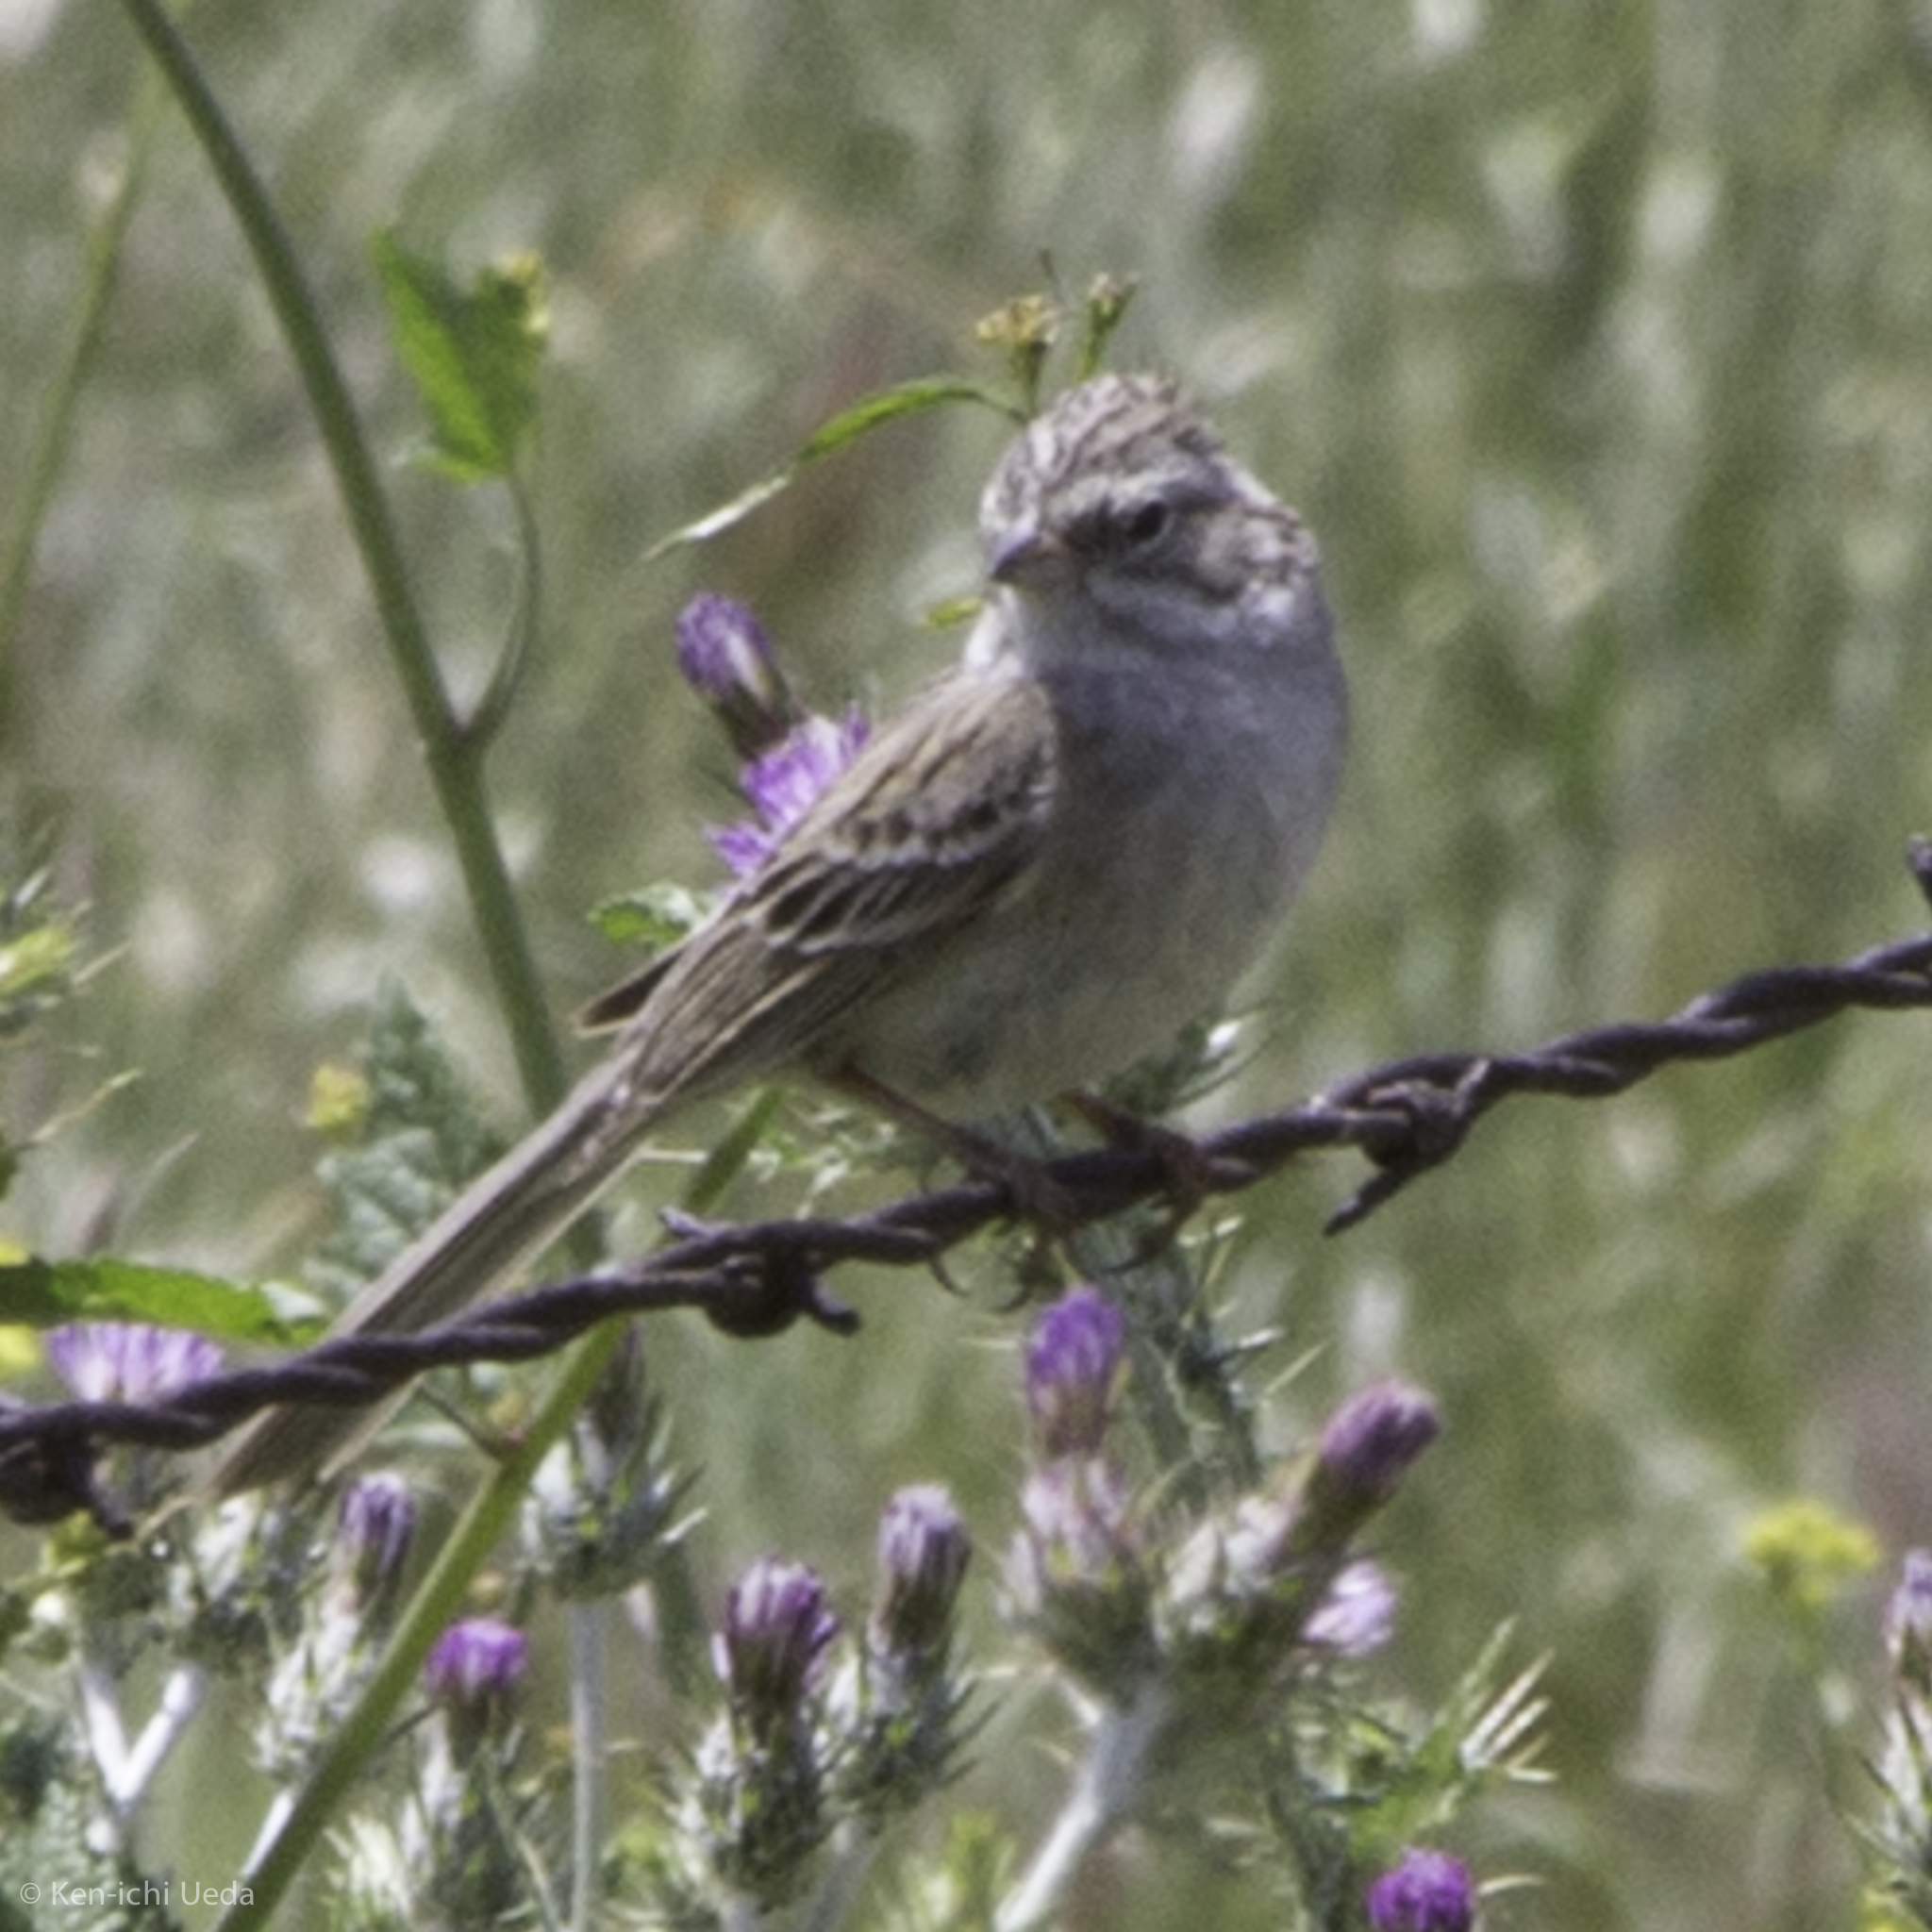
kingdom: Animalia
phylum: Chordata
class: Aves
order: Passeriformes
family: Passerellidae
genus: Spizella
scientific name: Spizella breweri
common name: Brewer's sparrow
